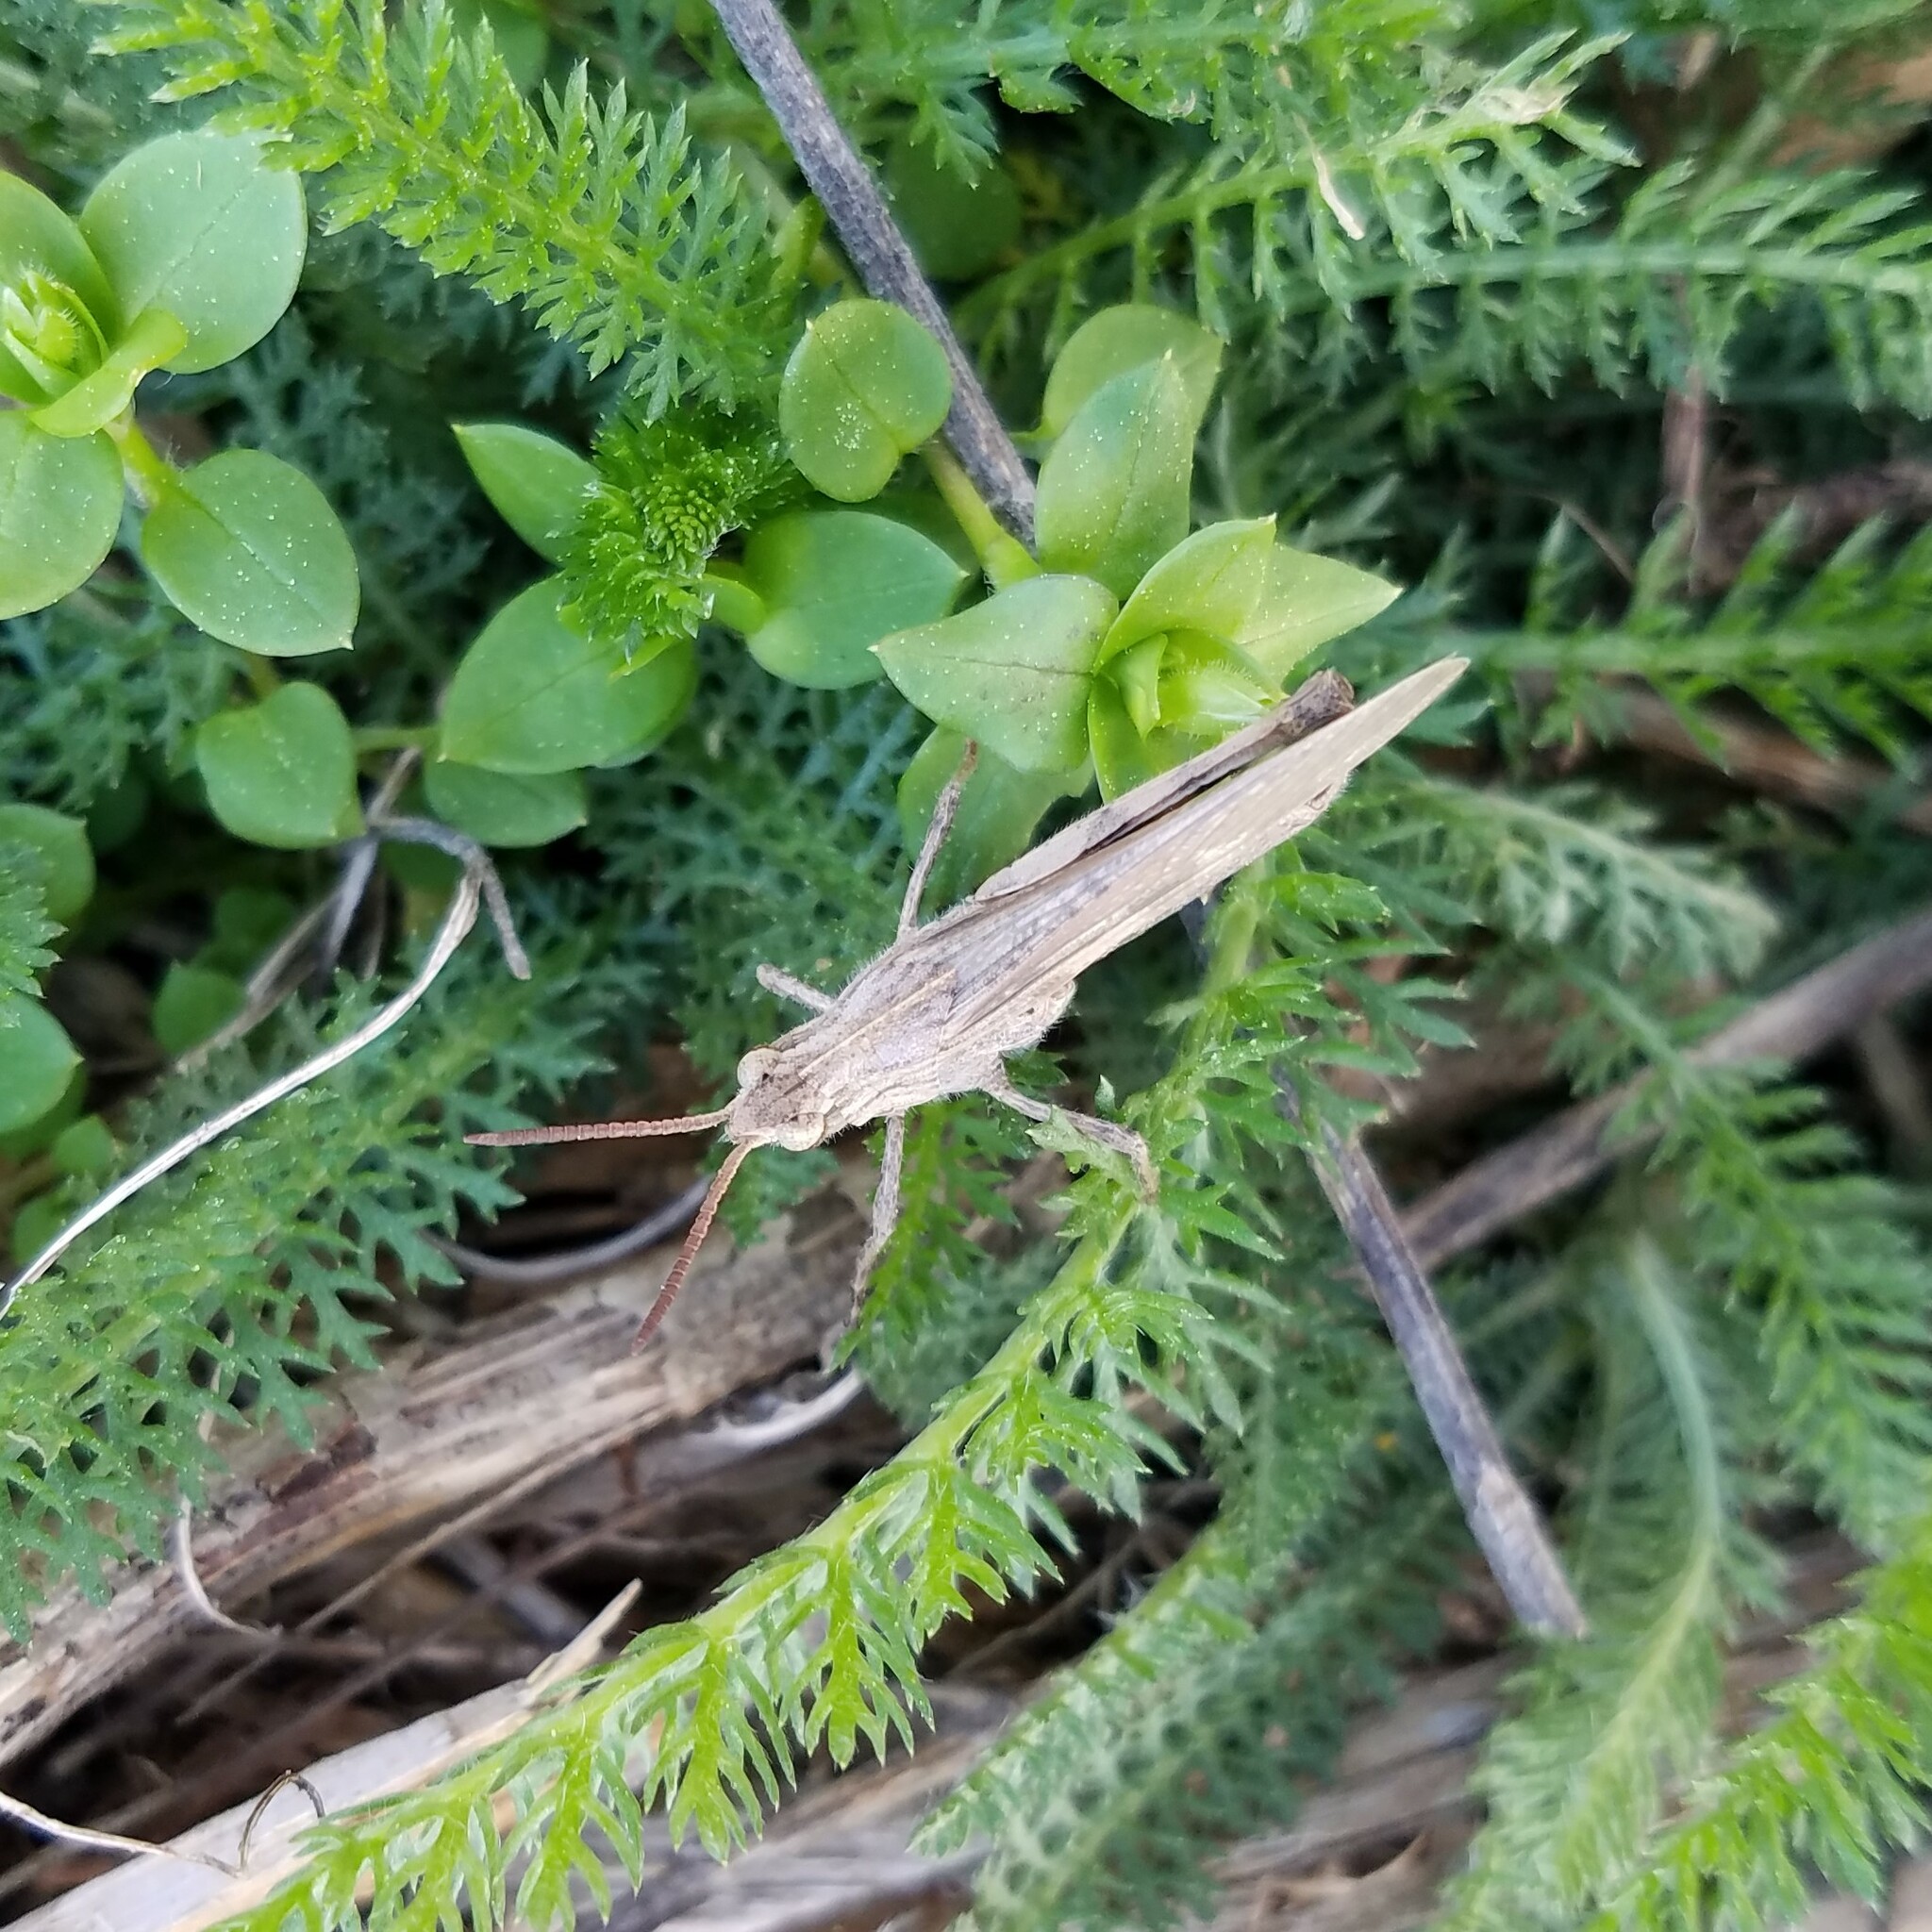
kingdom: Animalia
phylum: Arthropoda
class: Insecta
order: Orthoptera
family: Acrididae
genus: Chortophaga
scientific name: Chortophaga viridifasciata
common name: Green-striped grasshopper
